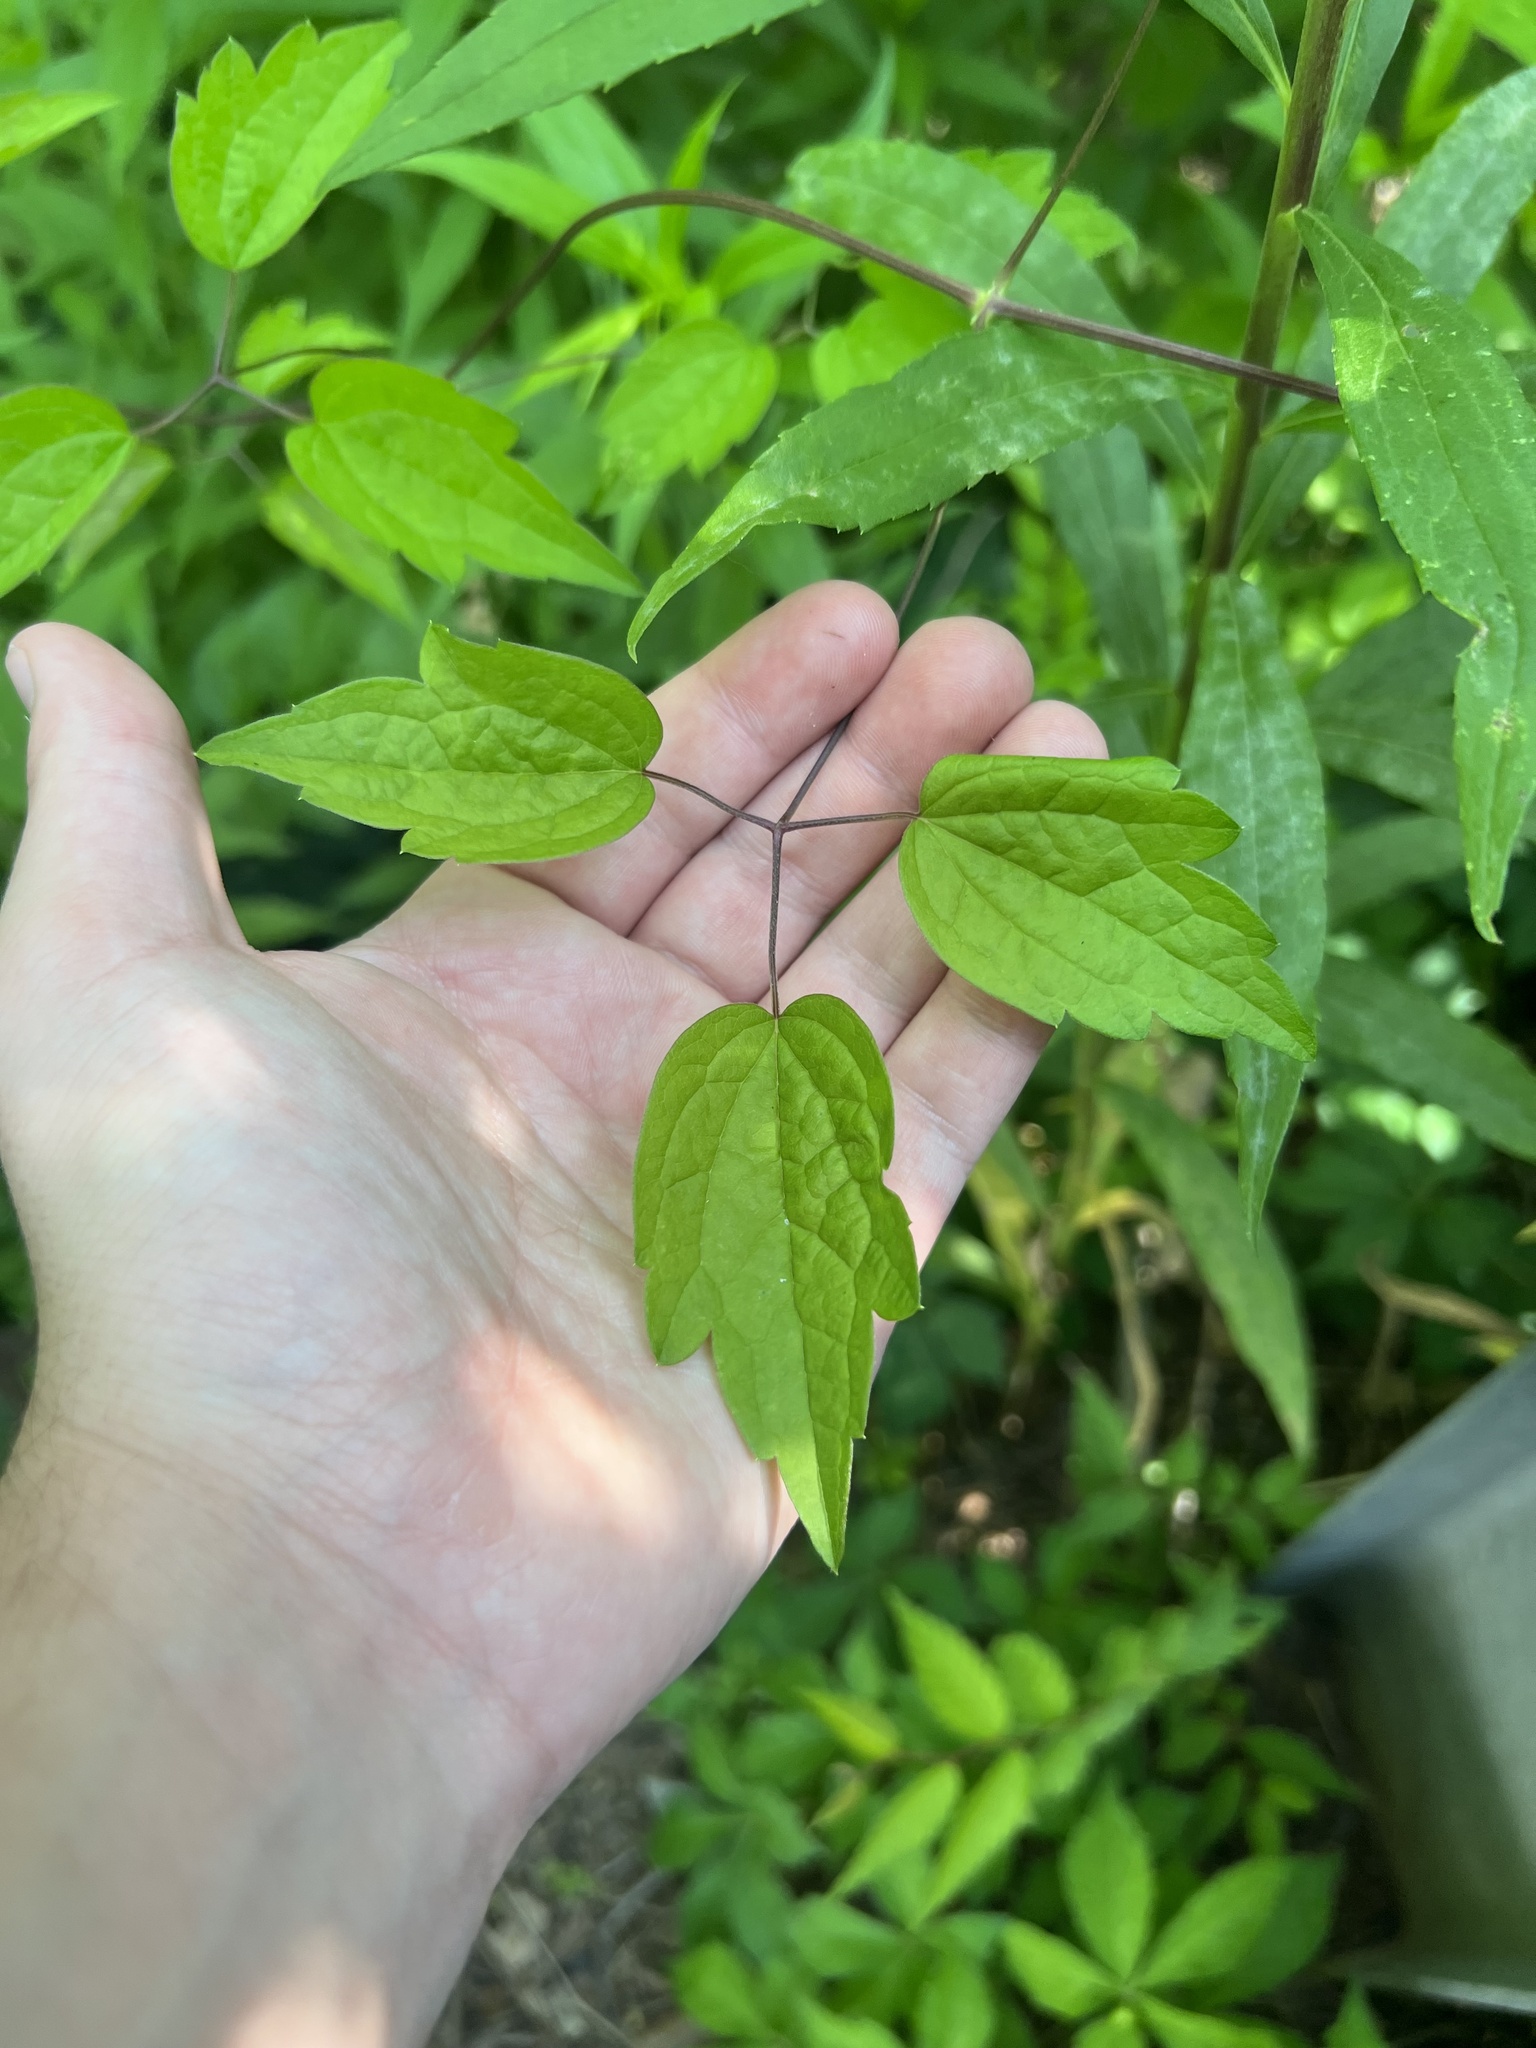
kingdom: Plantae
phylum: Tracheophyta
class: Magnoliopsida
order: Ranunculales
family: Ranunculaceae
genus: Clematis
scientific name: Clematis virginiana
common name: Virgin's-bower
